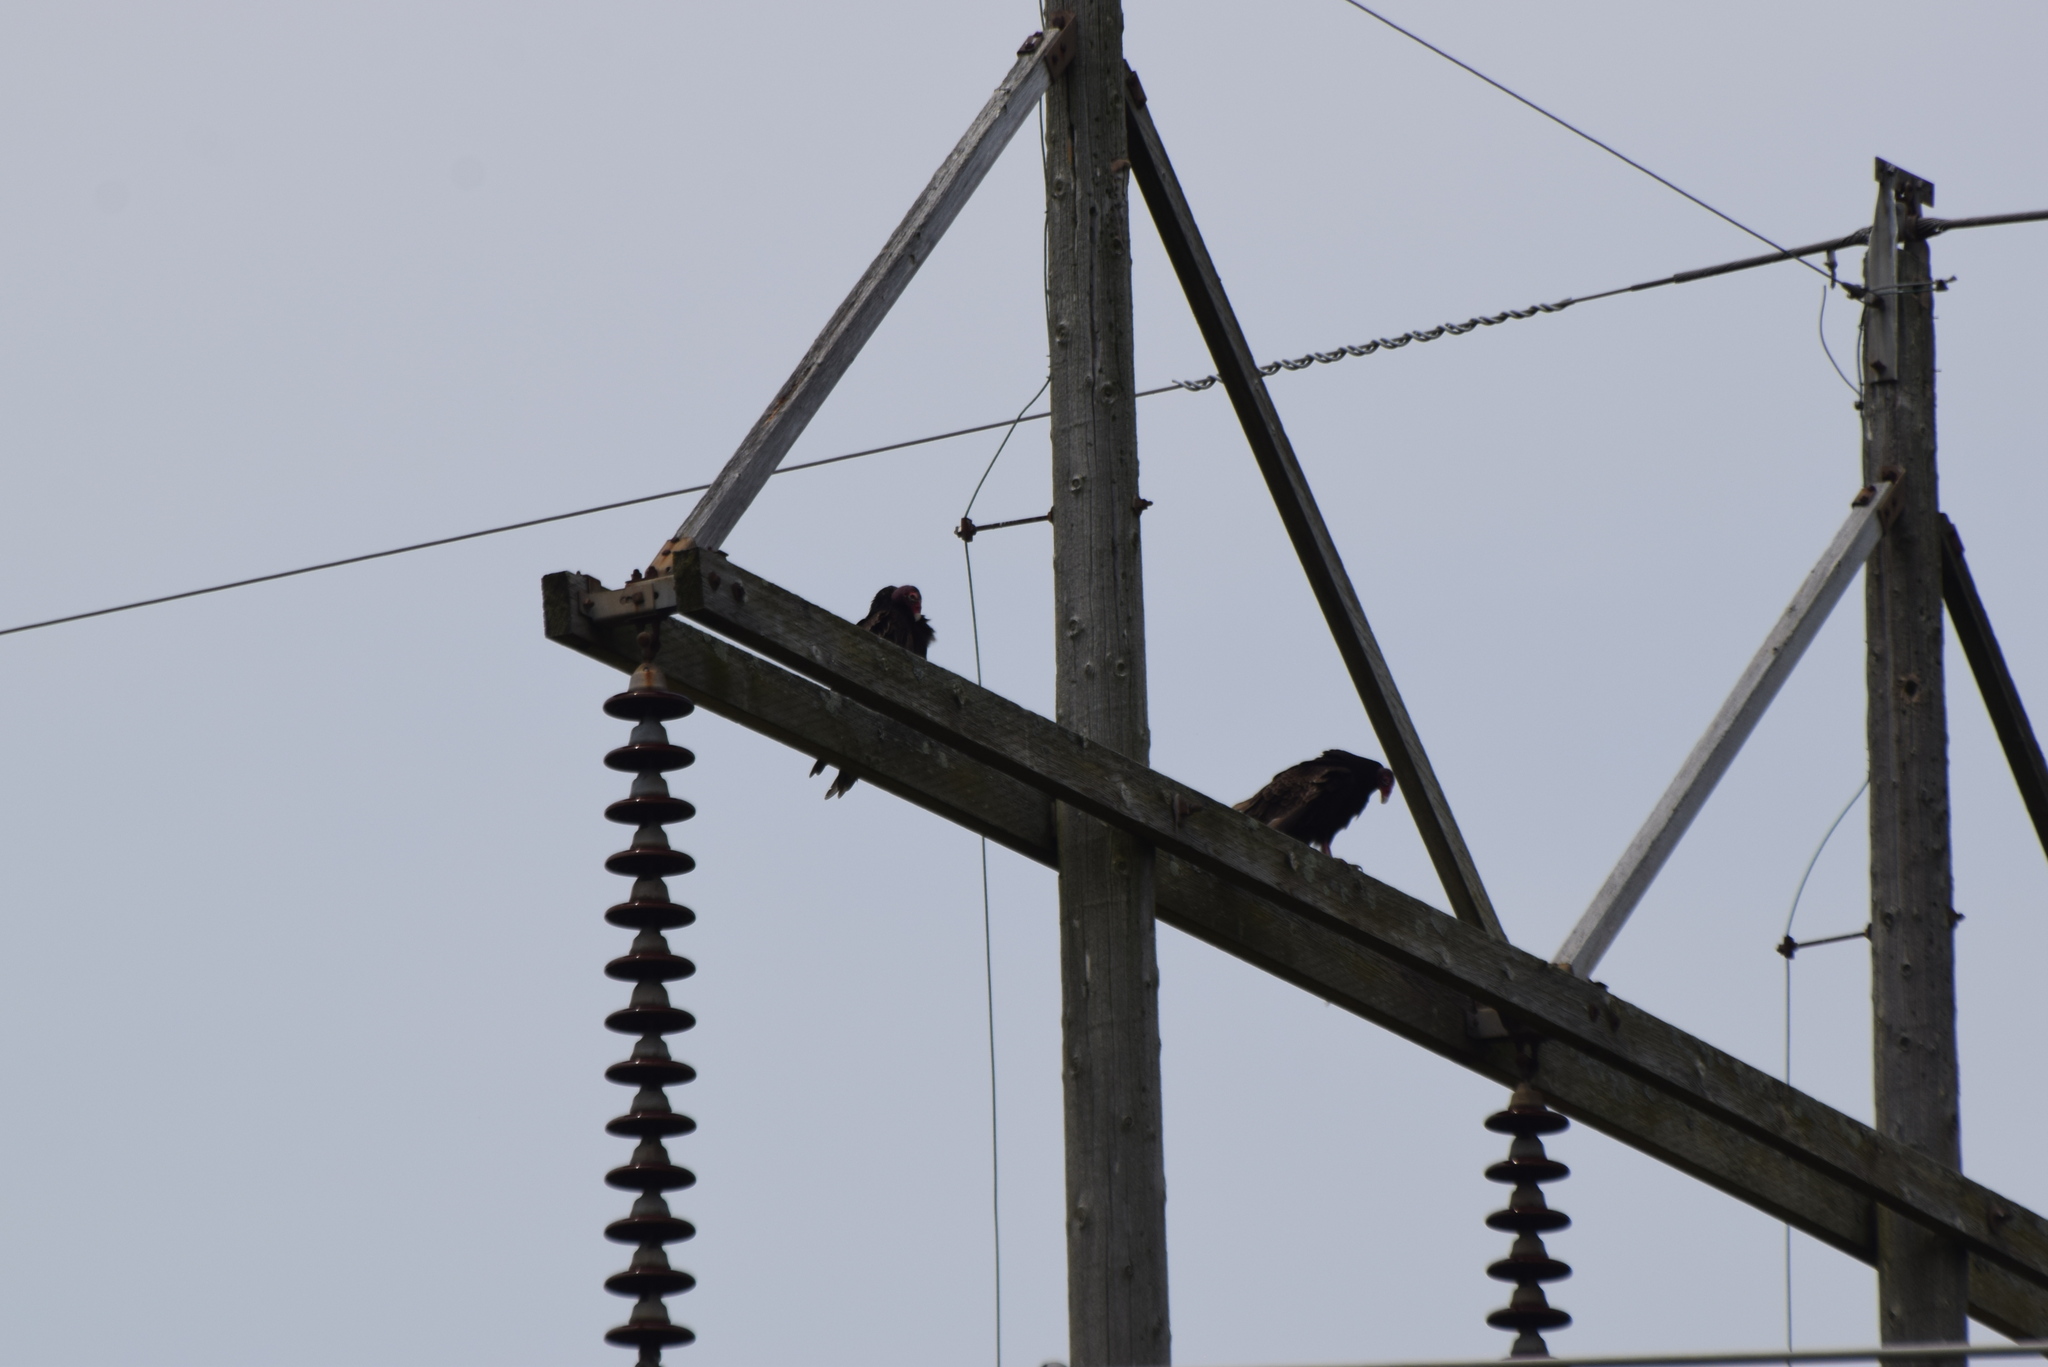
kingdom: Animalia
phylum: Chordata
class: Aves
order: Accipitriformes
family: Cathartidae
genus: Cathartes
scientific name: Cathartes aura
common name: Turkey vulture
